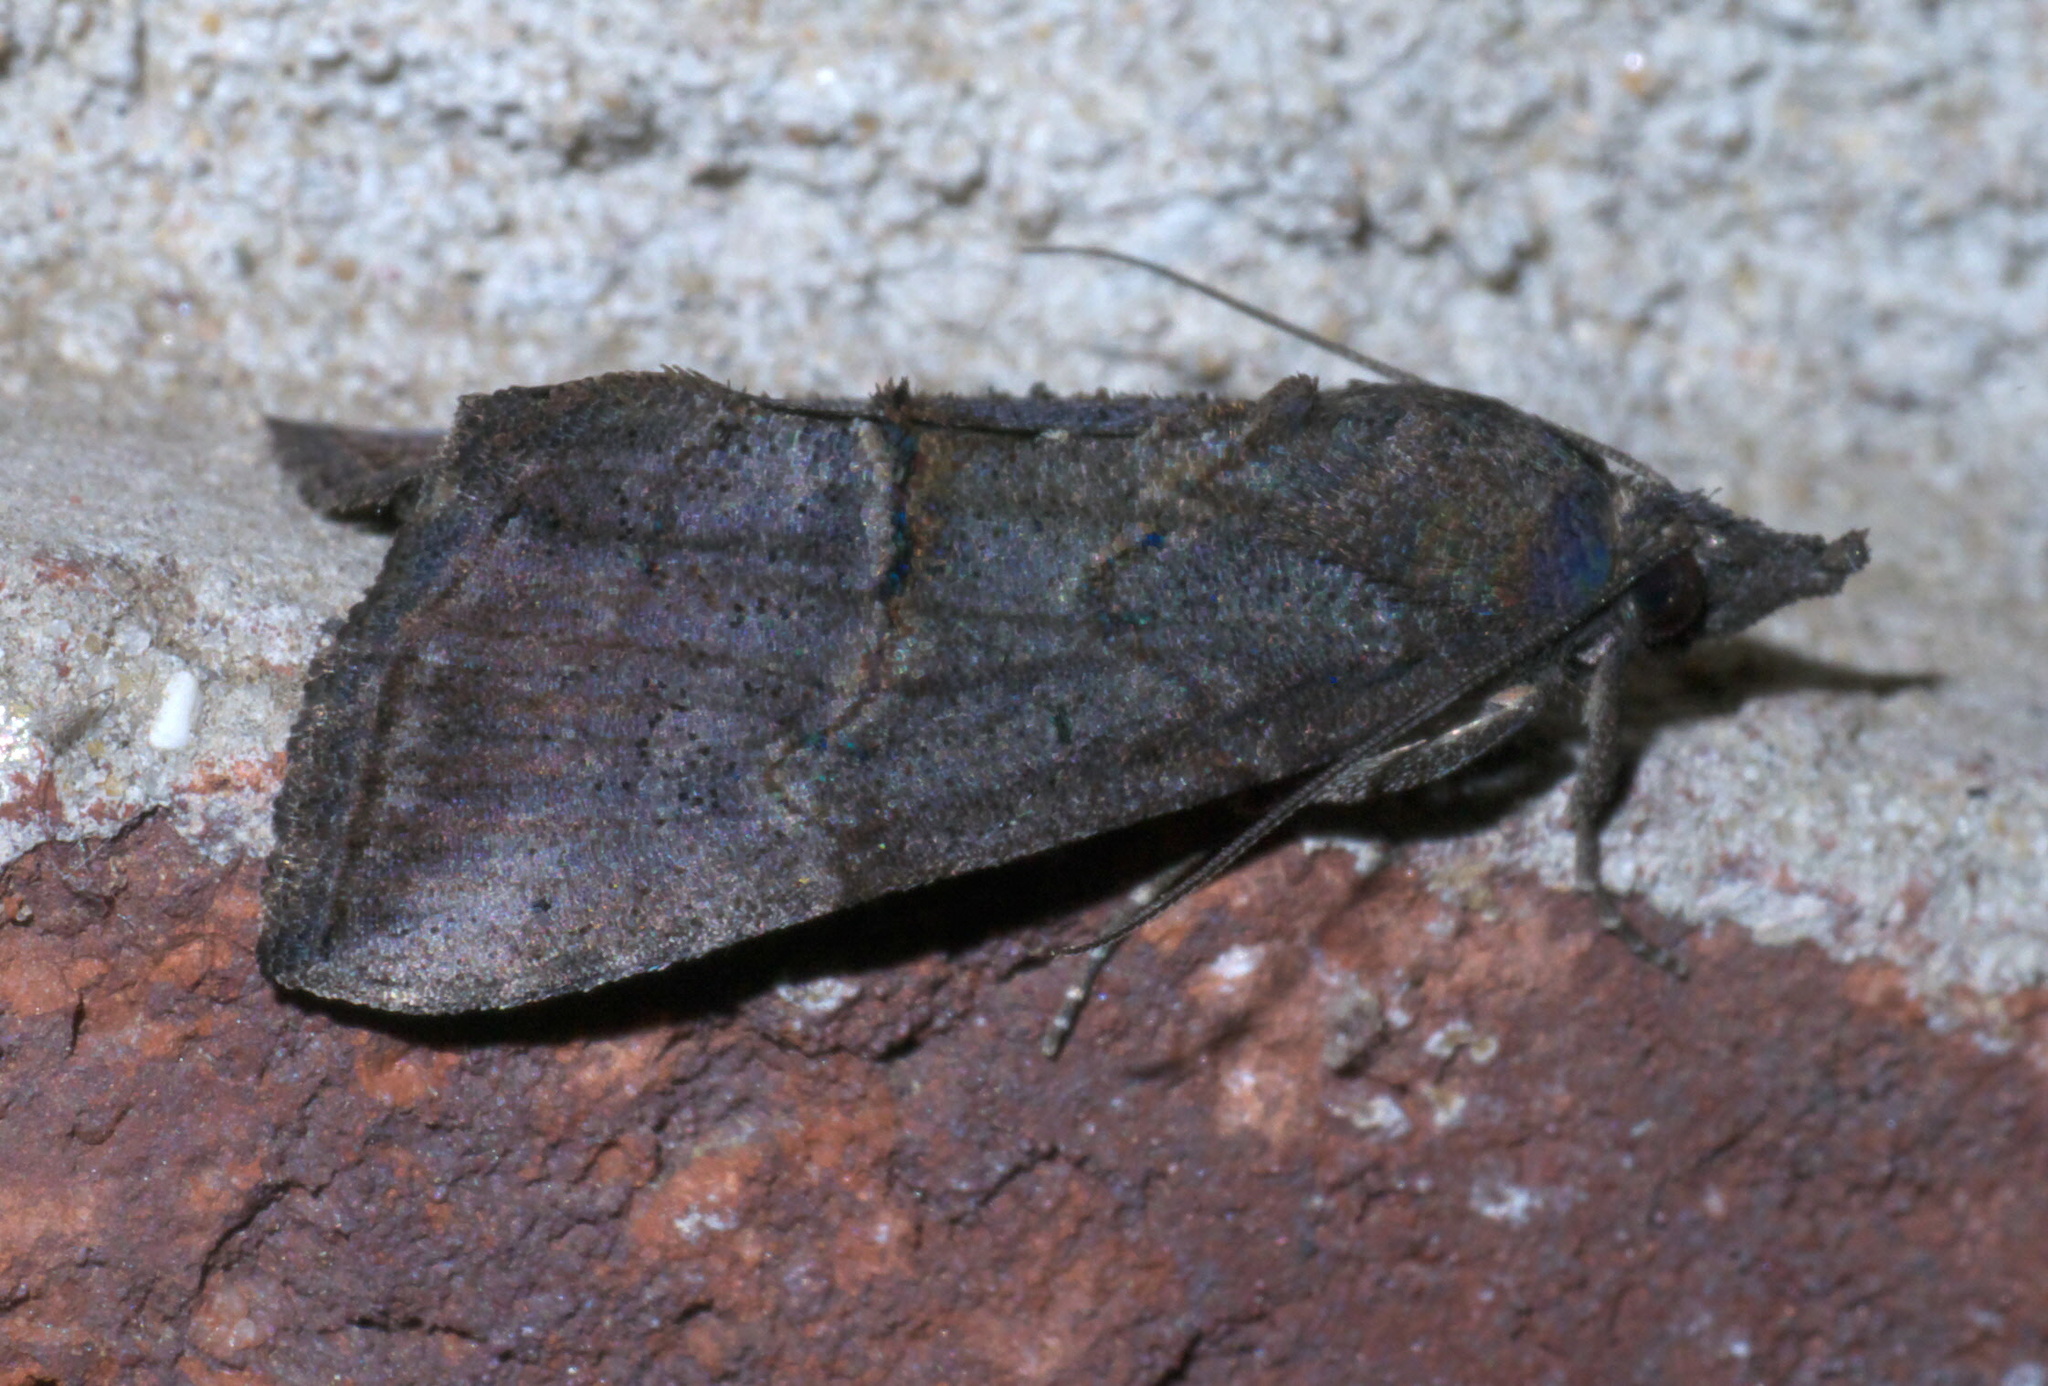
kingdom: Animalia
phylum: Arthropoda
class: Insecta
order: Lepidoptera
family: Erebidae
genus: Hypena
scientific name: Hypena scabra
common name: Green cloverworm
